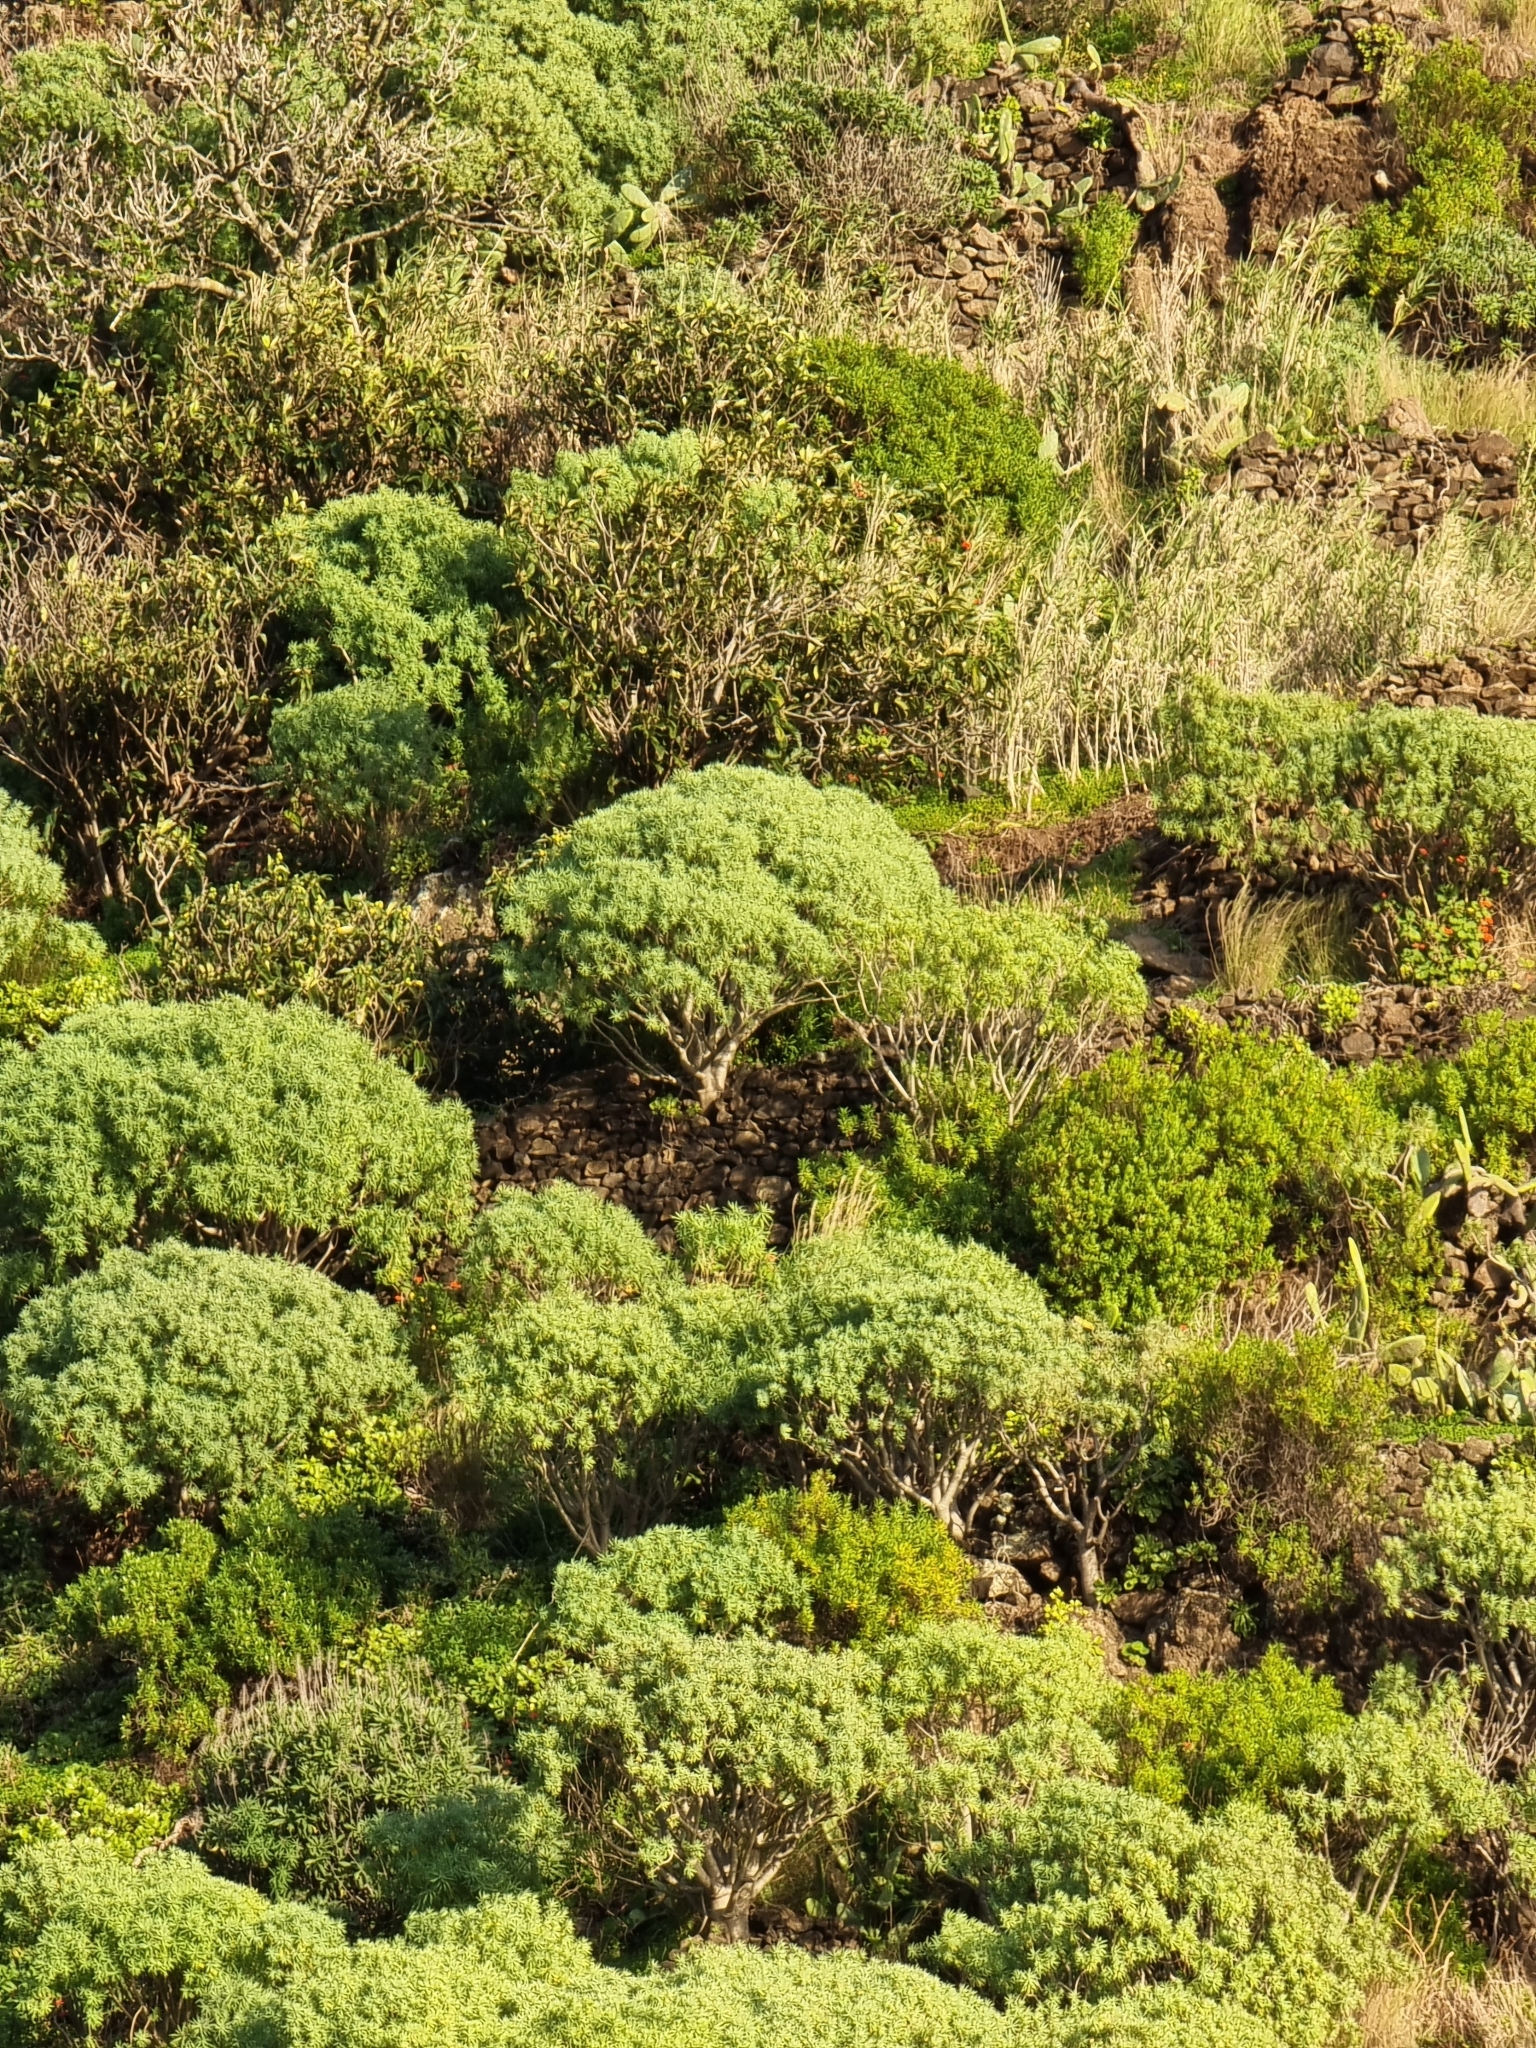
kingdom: Plantae
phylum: Tracheophyta
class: Magnoliopsida
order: Malpighiales
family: Euphorbiaceae
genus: Euphorbia
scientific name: Euphorbia piscatoria
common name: Fish-stunning spurge
